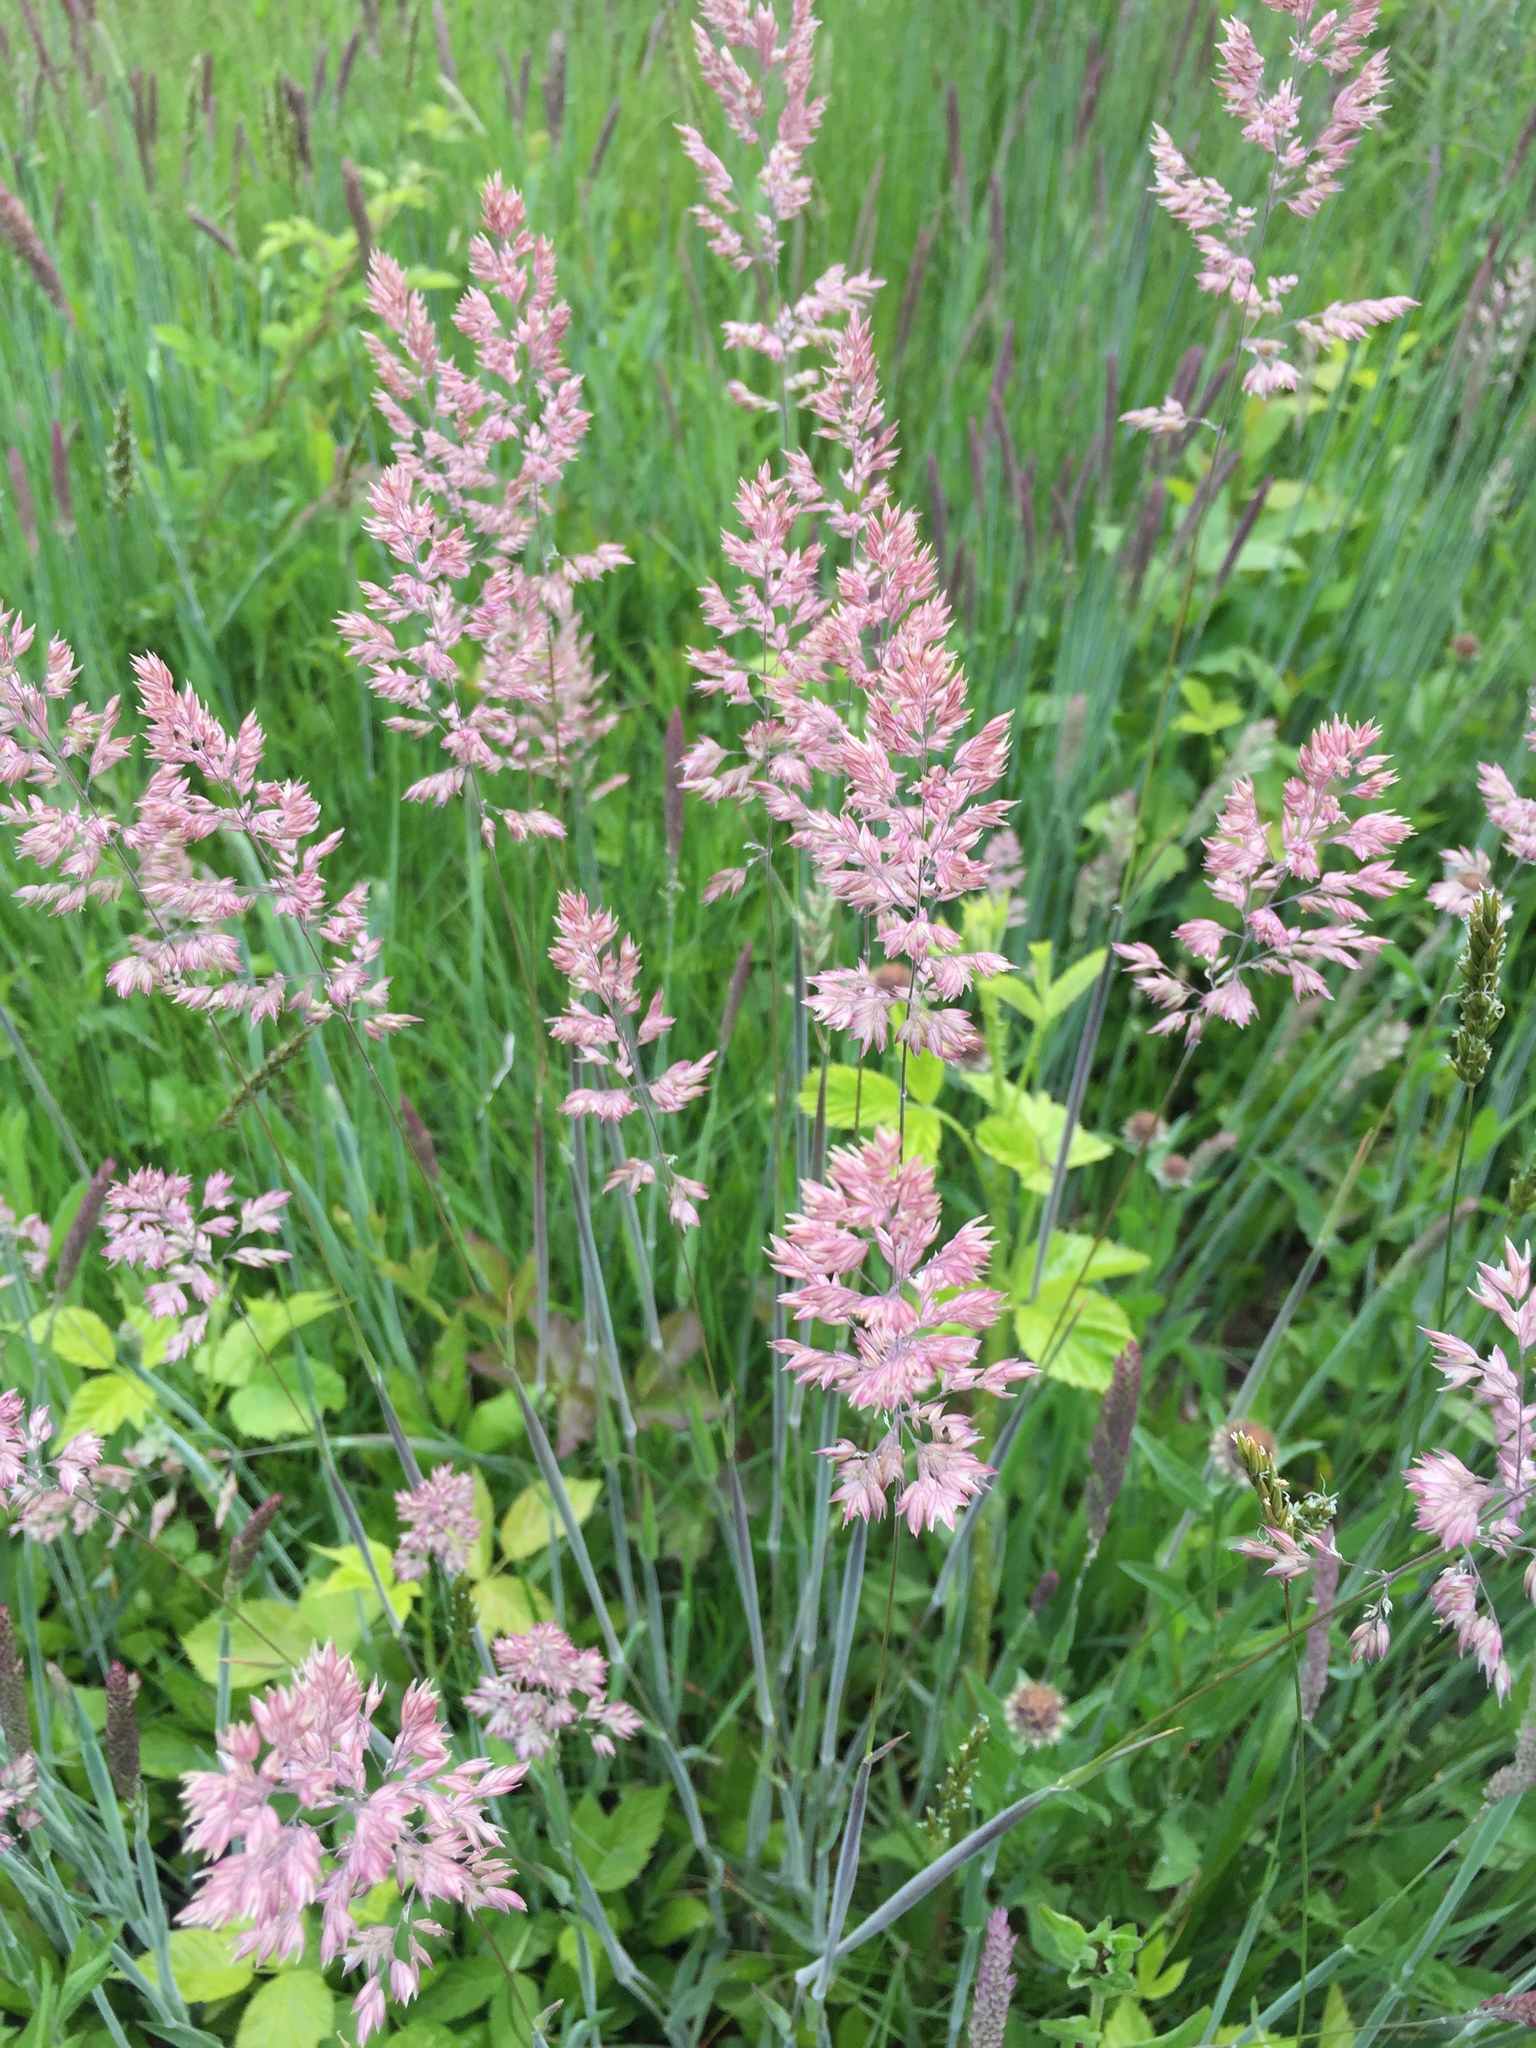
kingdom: Plantae
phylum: Tracheophyta
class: Liliopsida
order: Poales
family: Poaceae
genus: Holcus
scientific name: Holcus lanatus
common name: Yorkshire-fog
